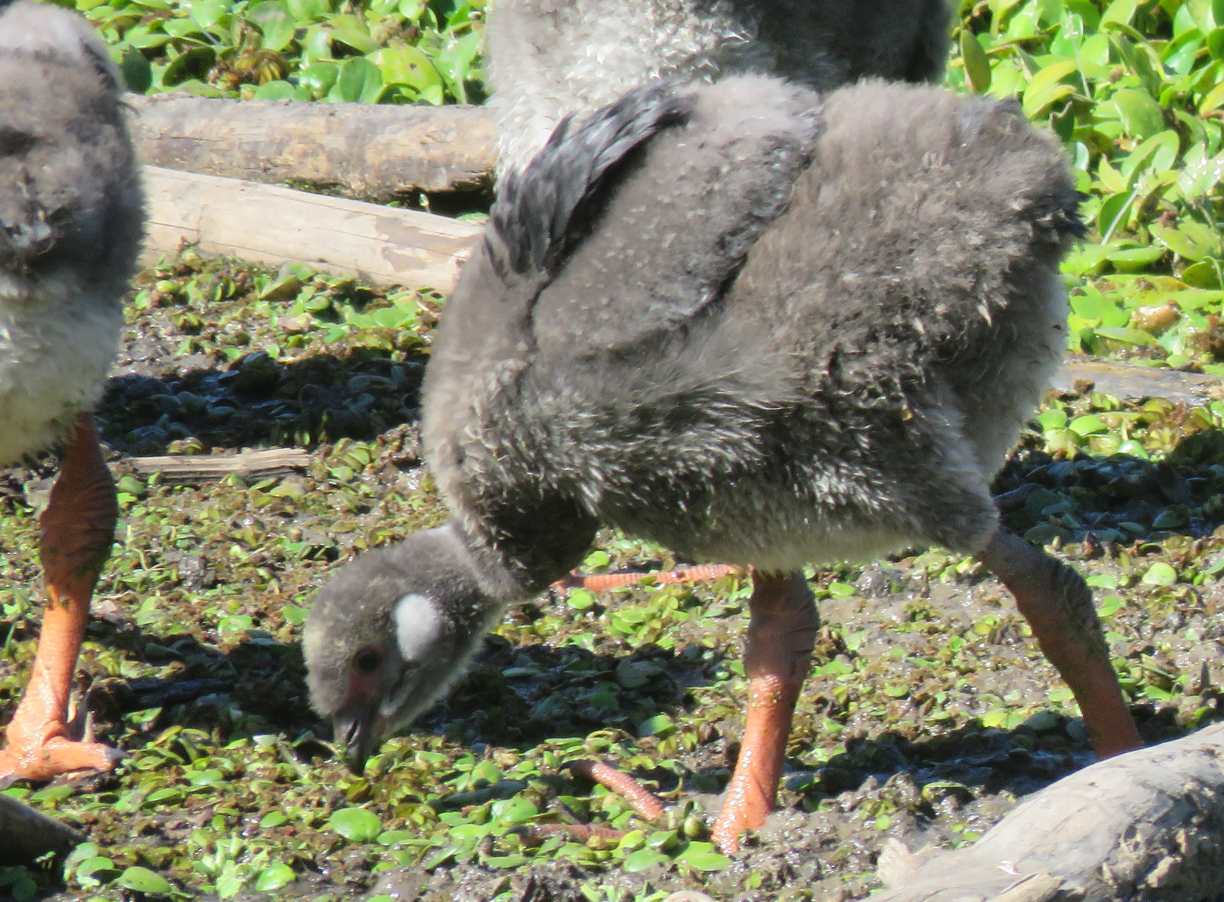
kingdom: Animalia
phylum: Chordata
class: Aves
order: Anseriformes
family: Anhimidae
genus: Chauna
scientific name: Chauna torquata
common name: Southern screamer
